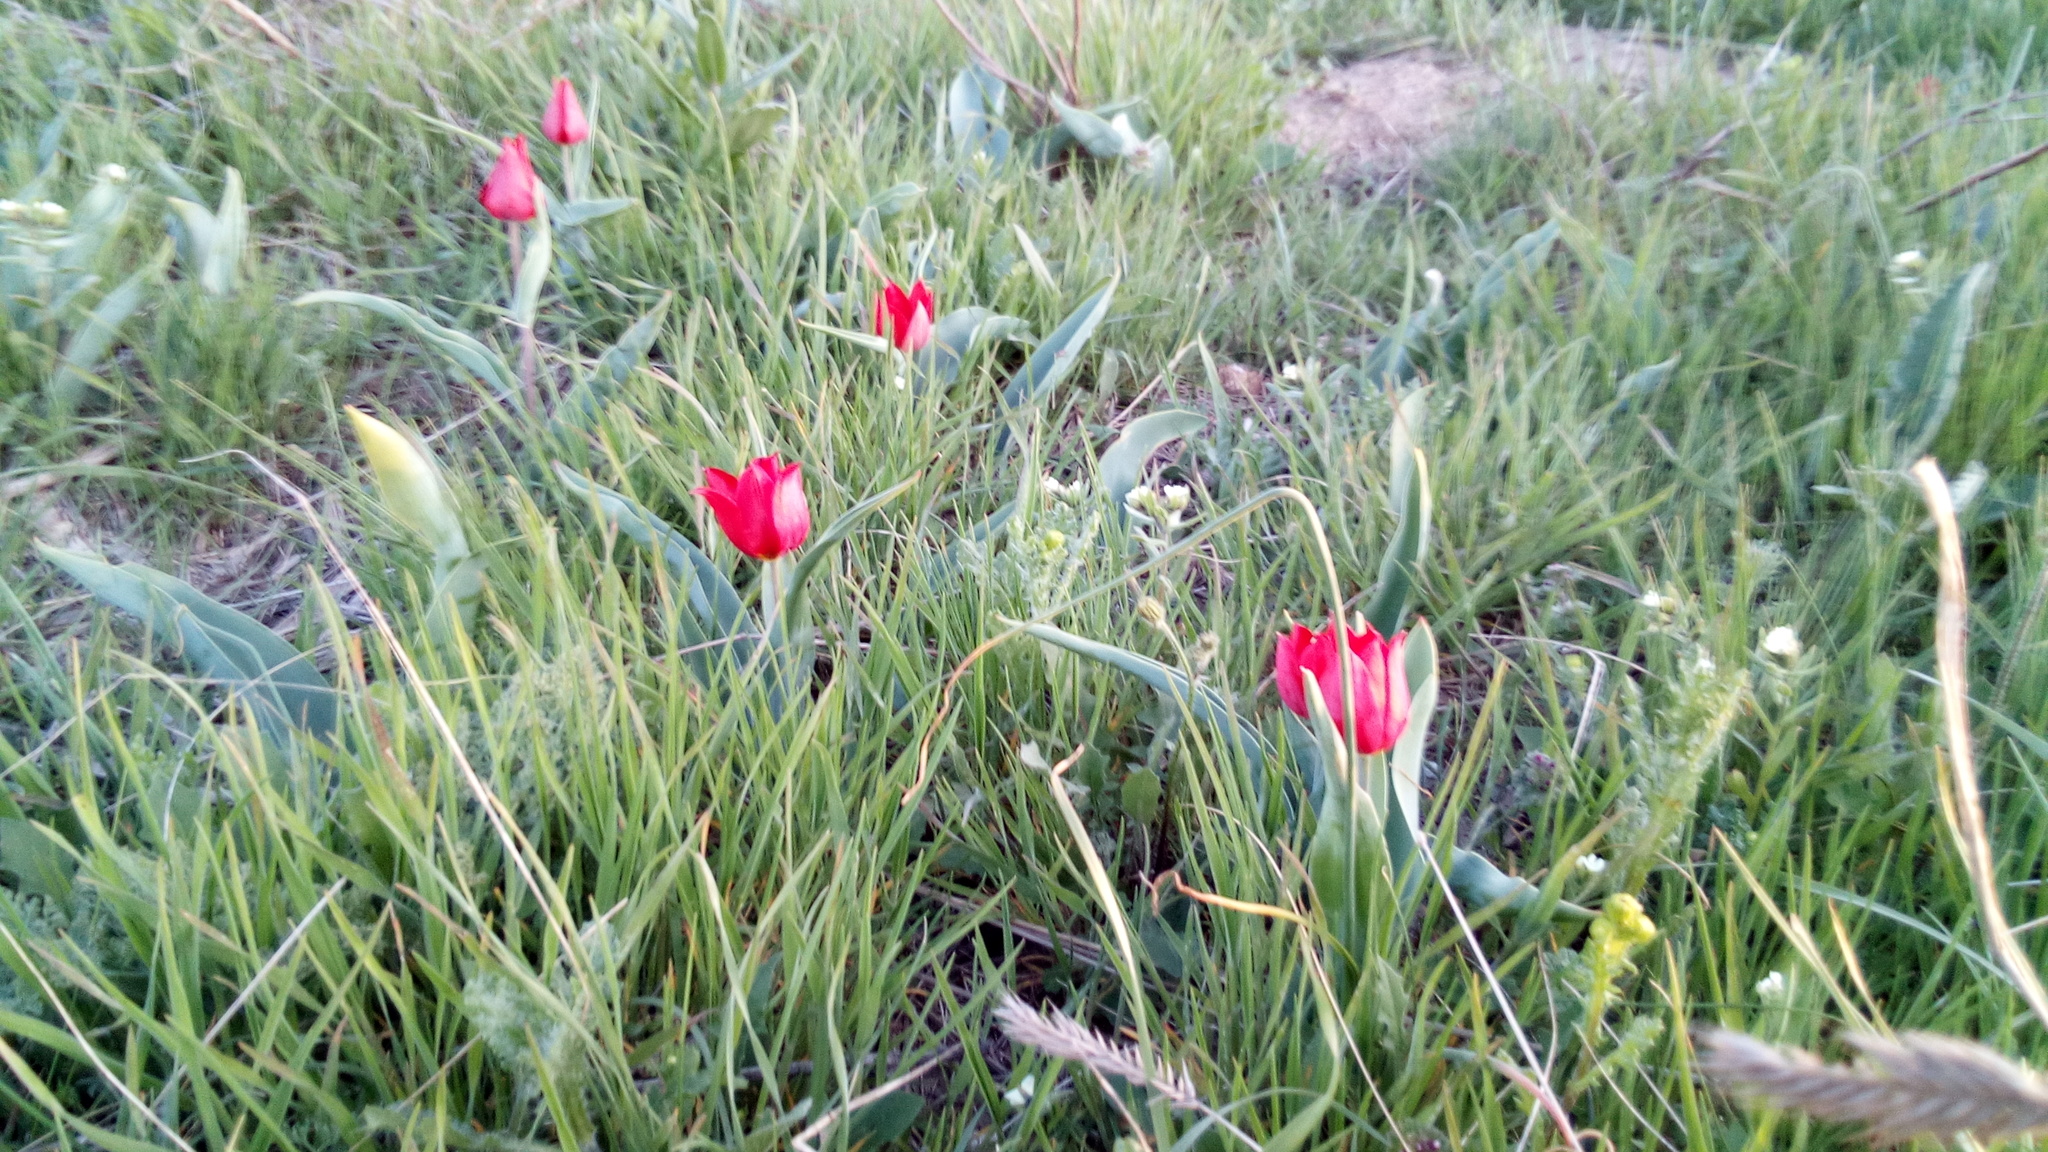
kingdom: Plantae
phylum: Tracheophyta
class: Liliopsida
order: Liliales
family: Liliaceae
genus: Tulipa
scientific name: Tulipa suaveolens
